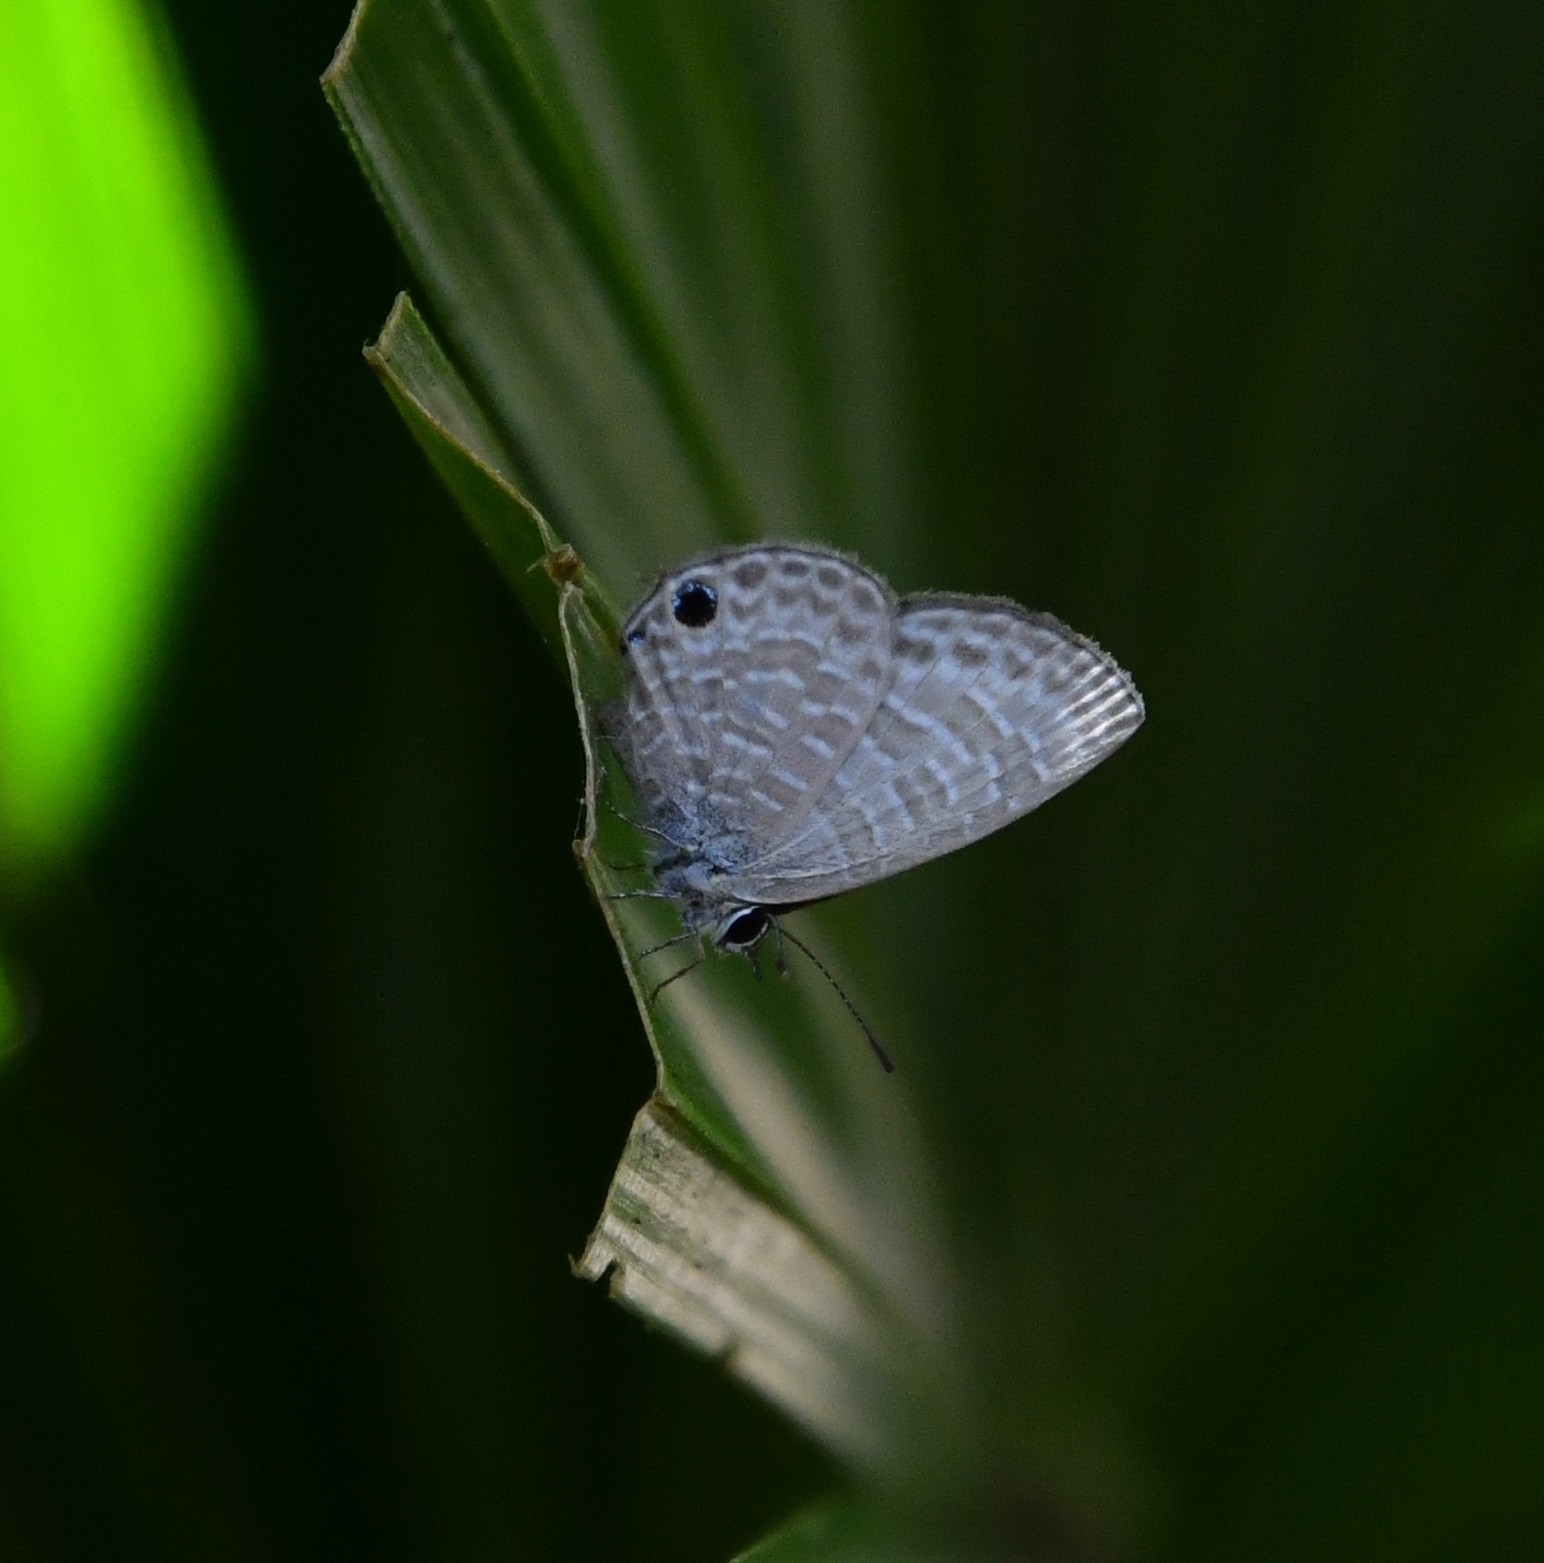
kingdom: Animalia
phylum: Arthropoda
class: Insecta
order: Lepidoptera
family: Lycaenidae
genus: Nacaduba
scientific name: Nacaduba kurava
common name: Transparent 6-line blue
